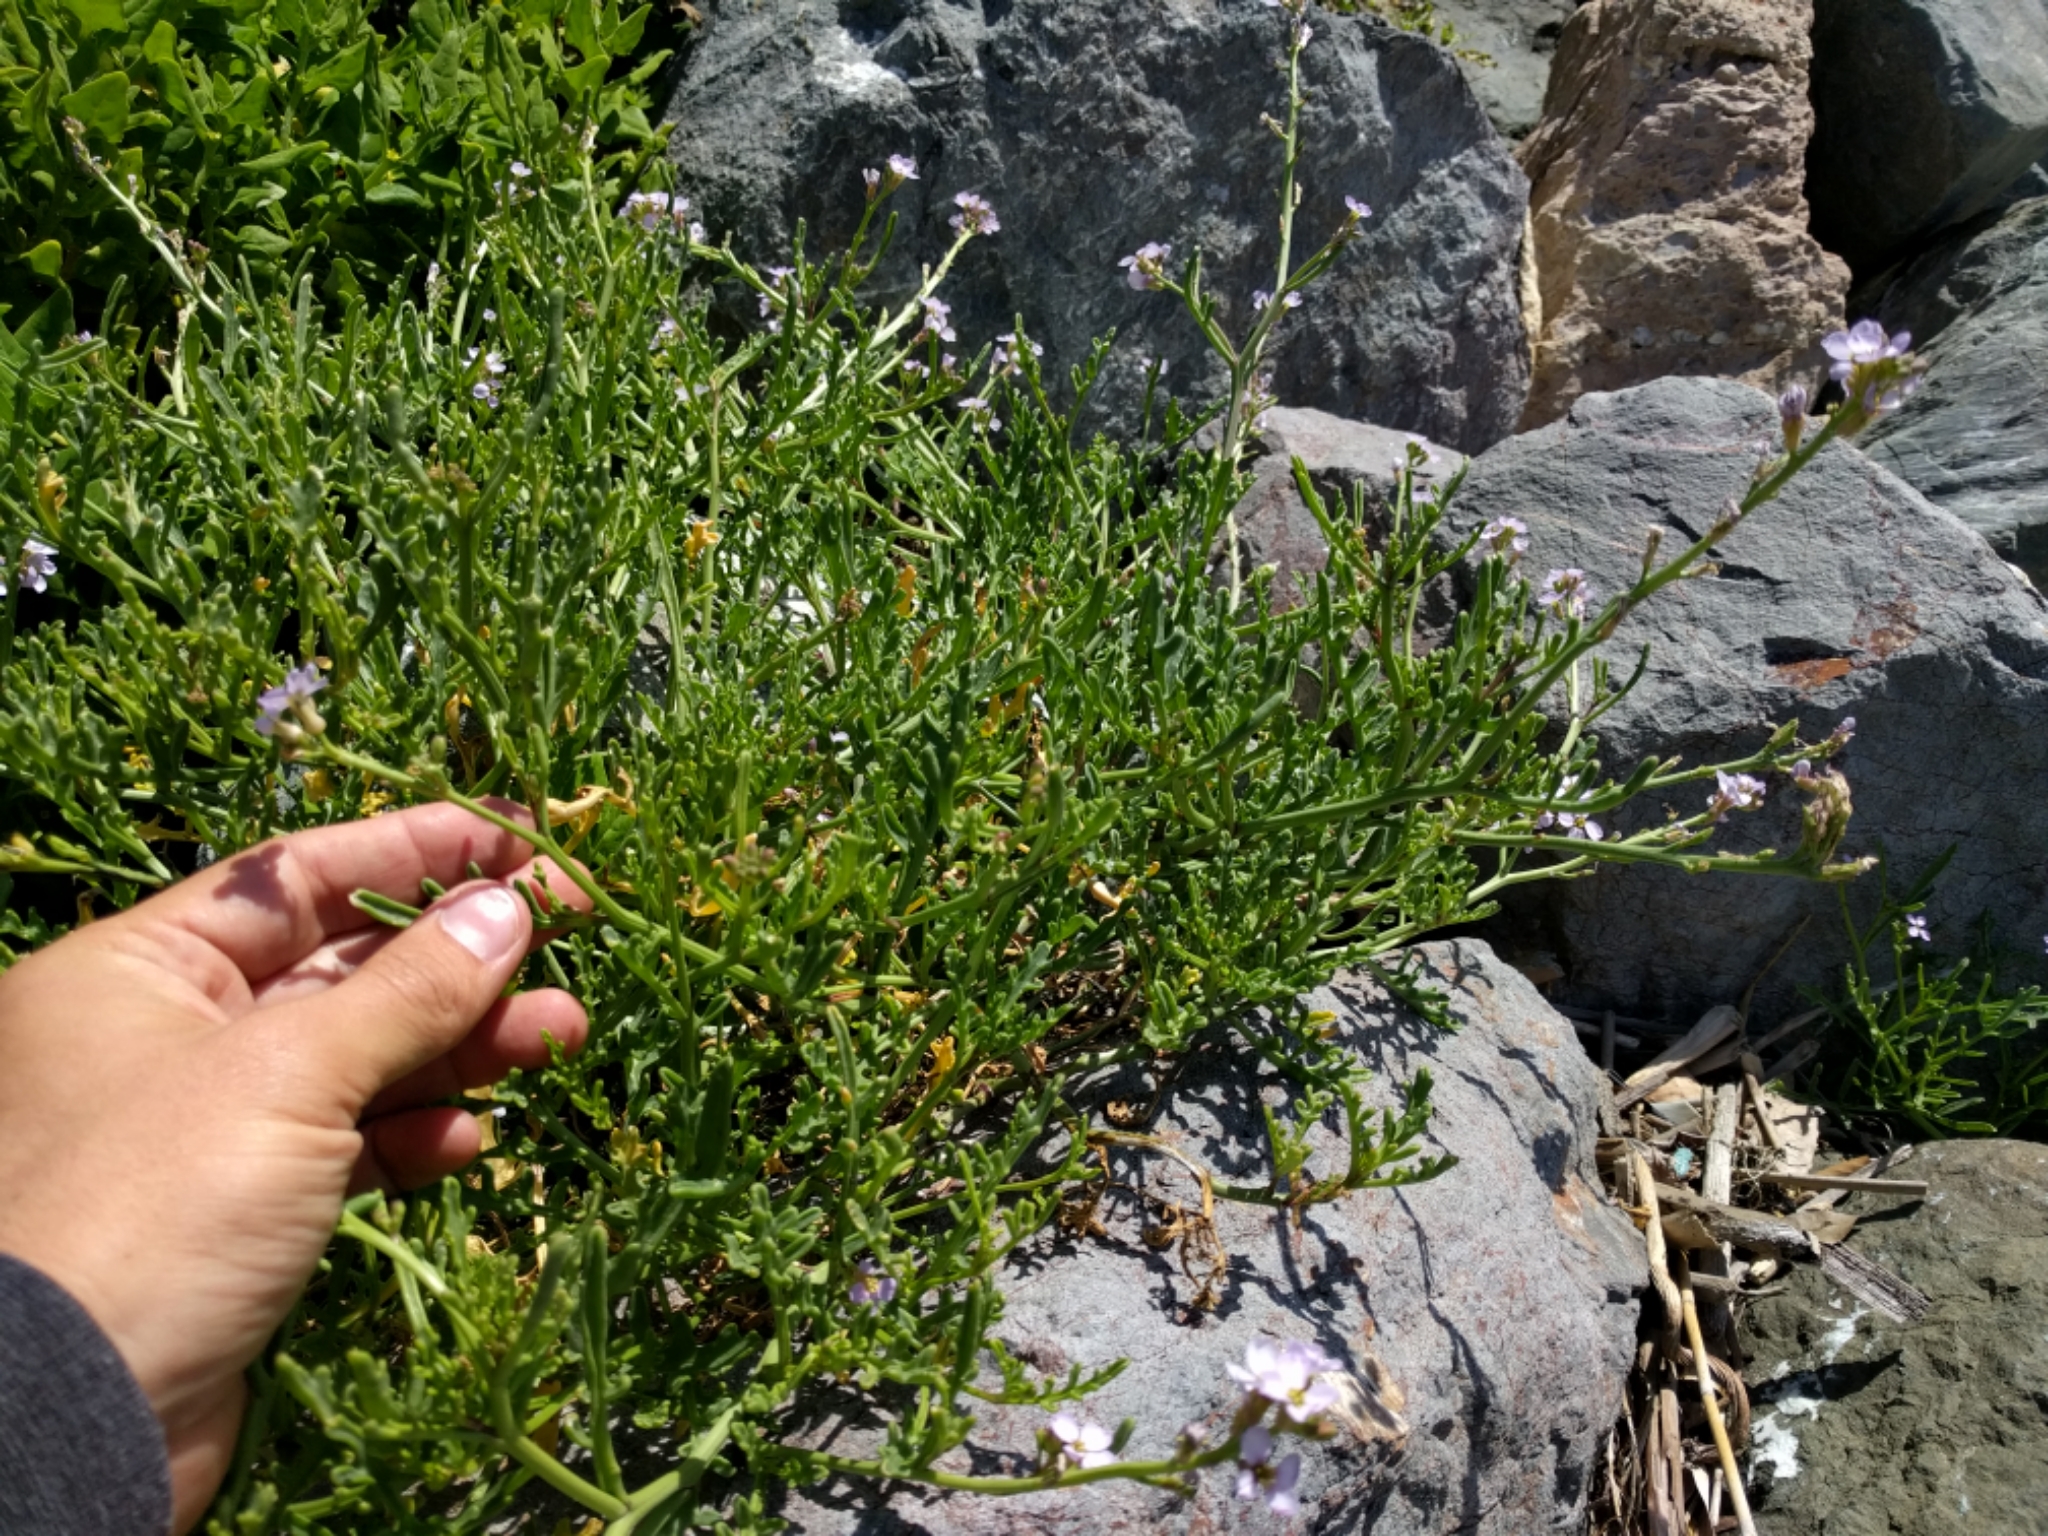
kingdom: Plantae
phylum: Tracheophyta
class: Magnoliopsida
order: Brassicales
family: Brassicaceae
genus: Cakile
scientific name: Cakile maritima
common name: Sea rocket
